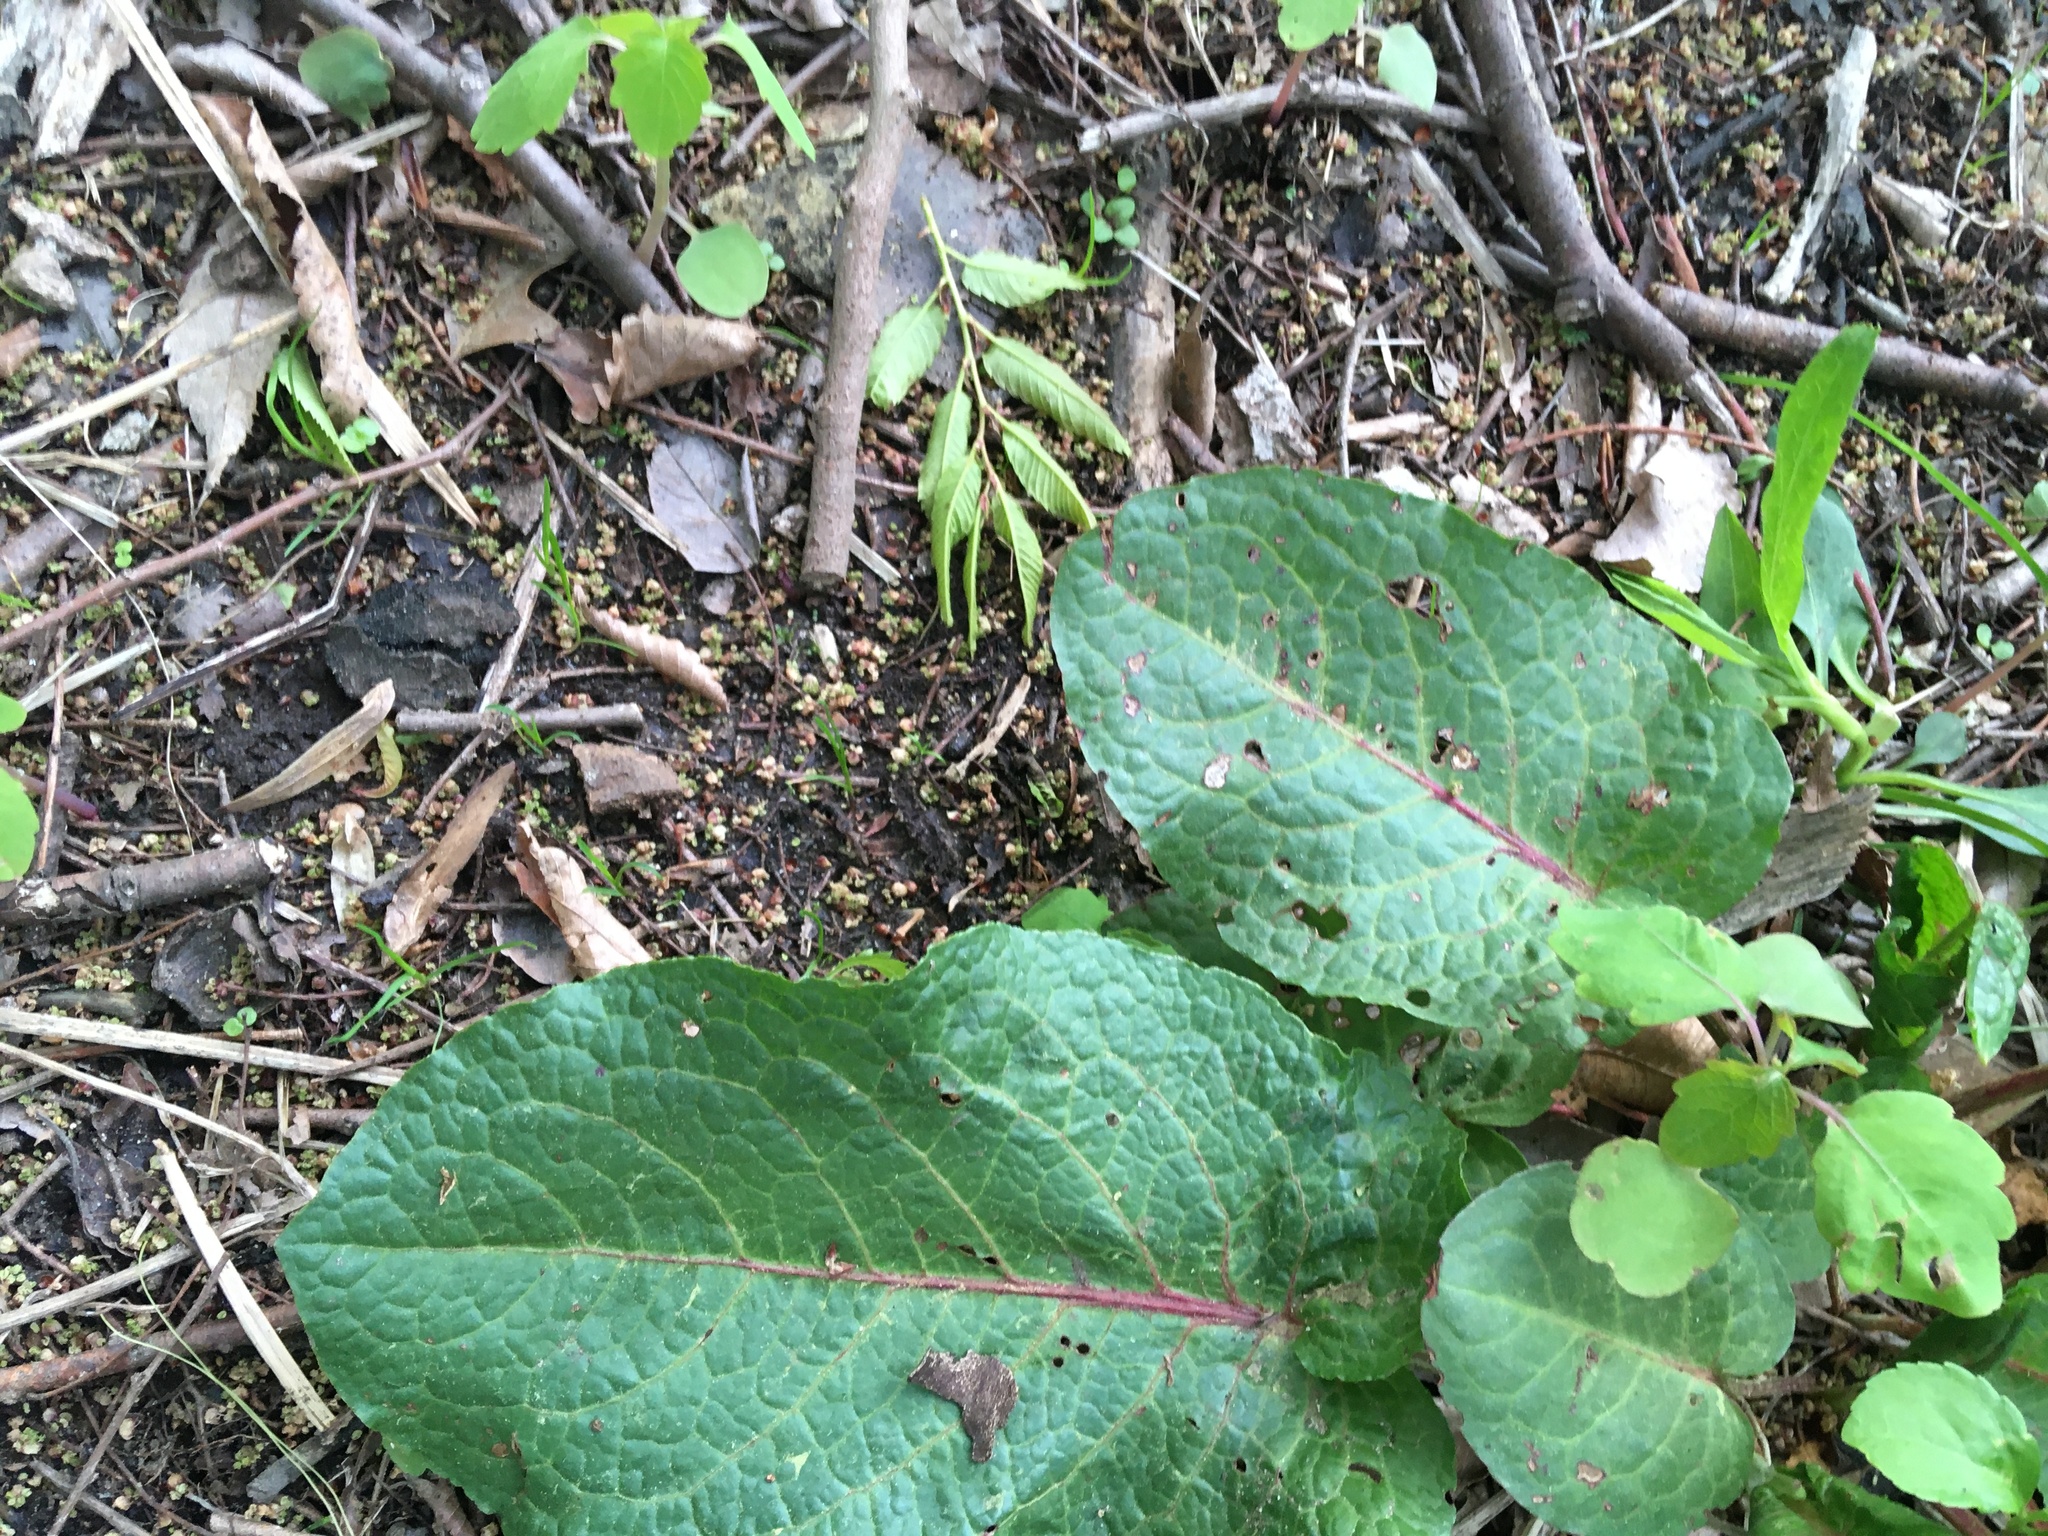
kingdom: Plantae
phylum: Tracheophyta
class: Magnoliopsida
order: Caryophyllales
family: Polygonaceae
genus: Rumex
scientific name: Rumex obtusifolius
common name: Bitter dock
